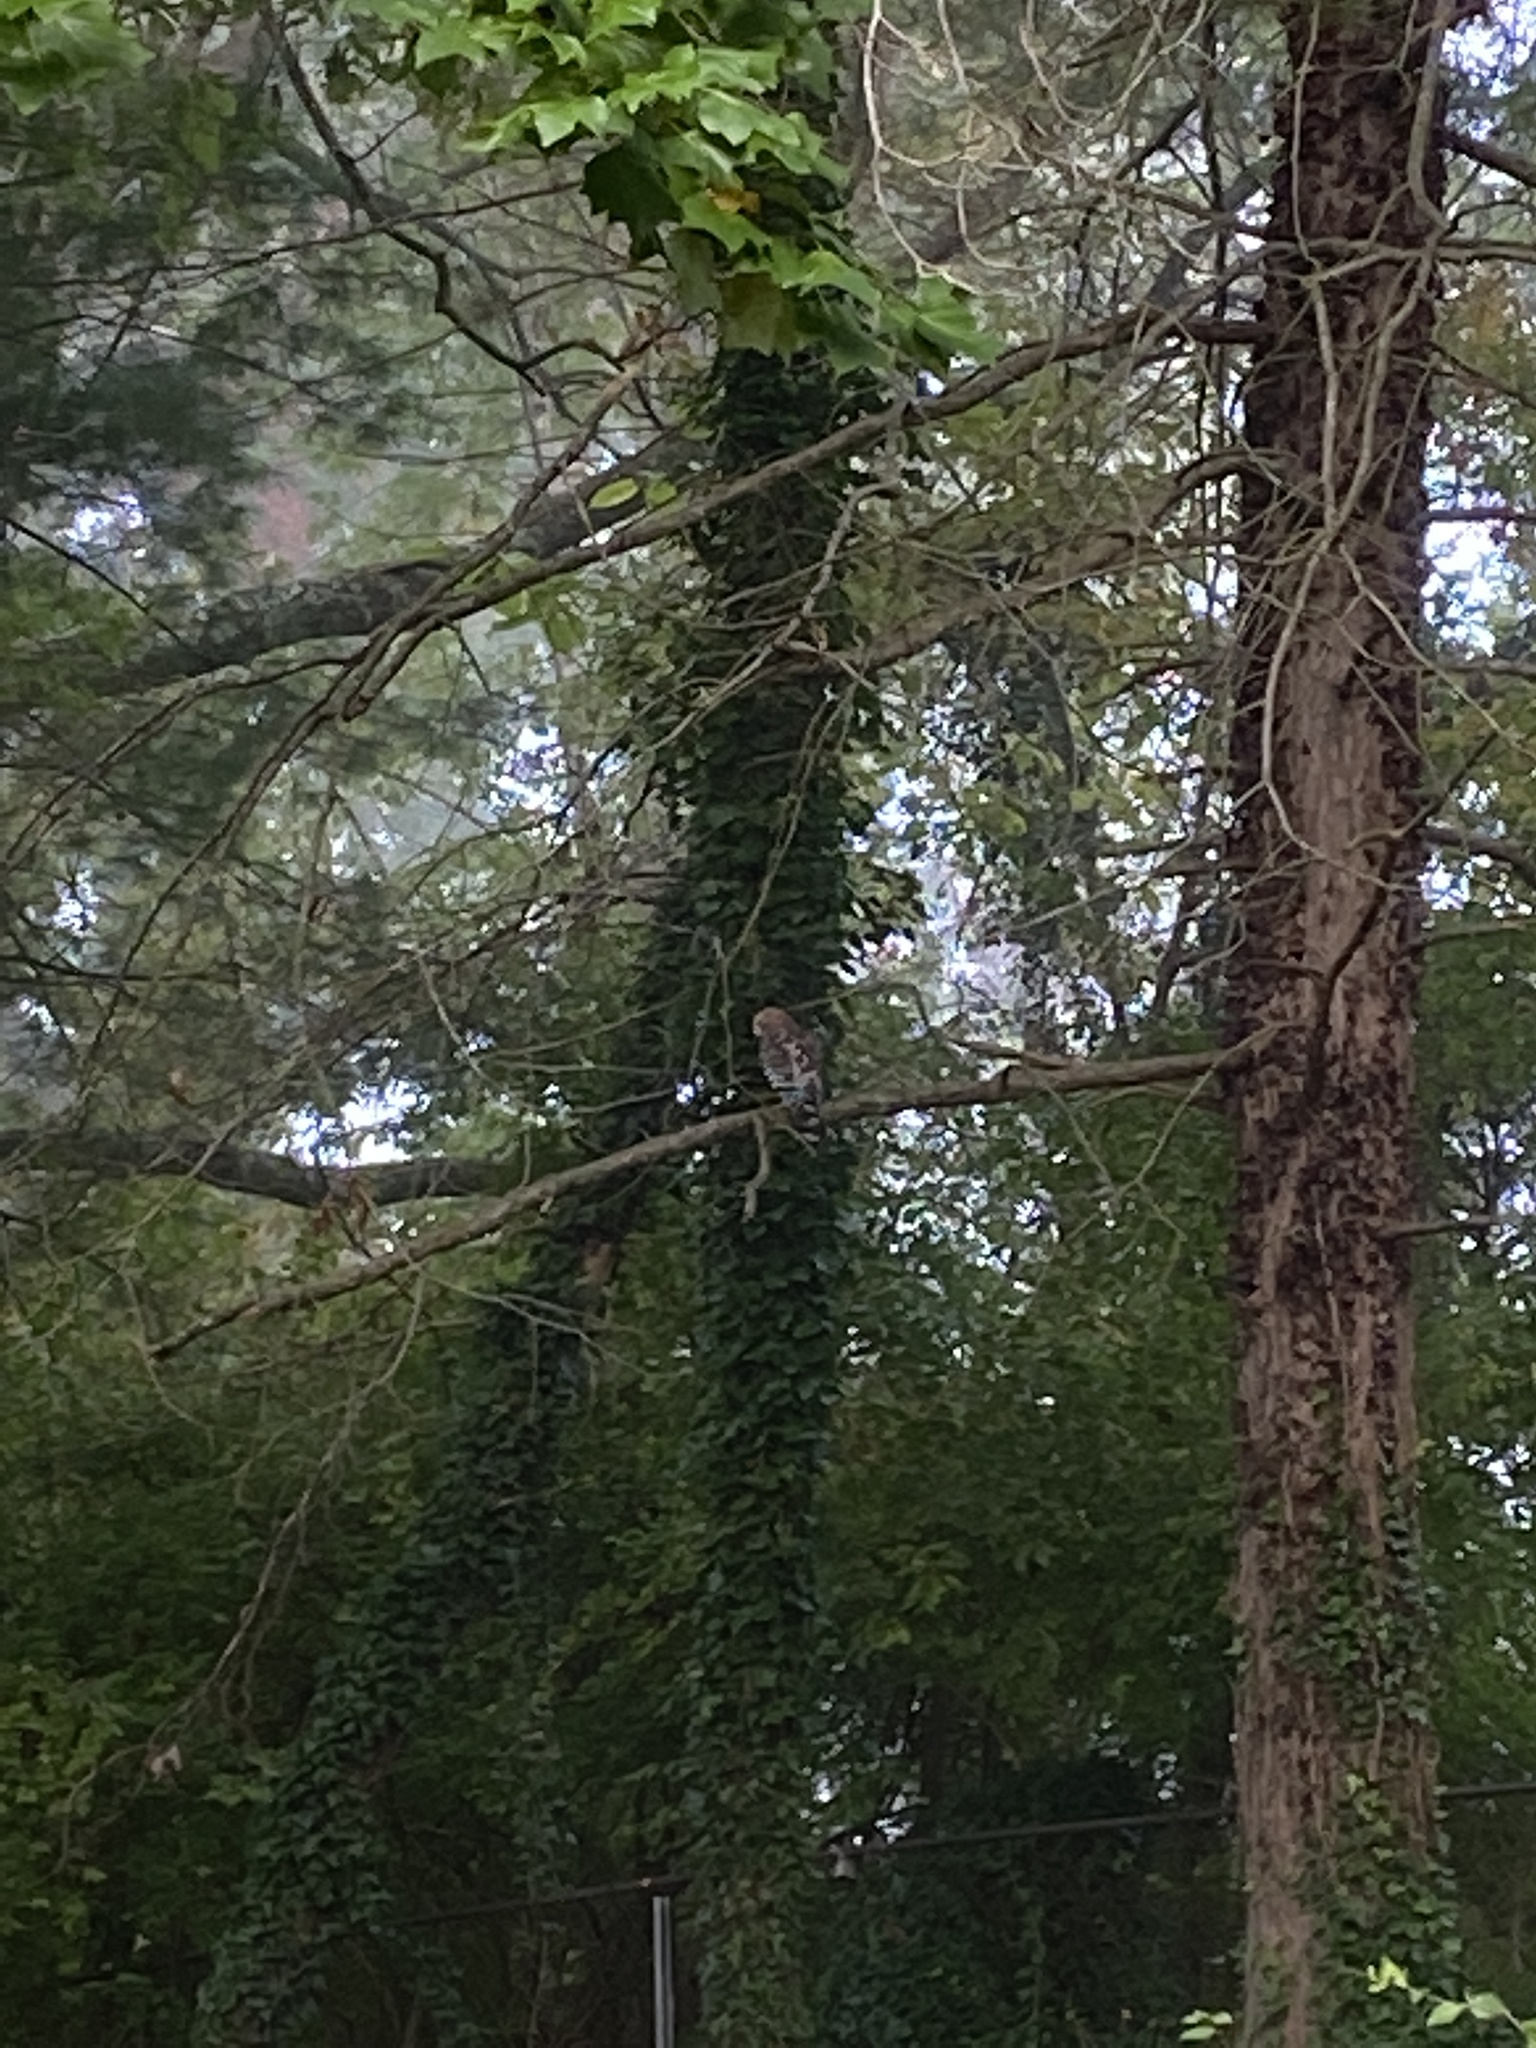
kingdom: Animalia
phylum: Chordata
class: Aves
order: Accipitriformes
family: Accipitridae
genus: Buteo
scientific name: Buteo lineatus
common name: Red-shouldered hawk
